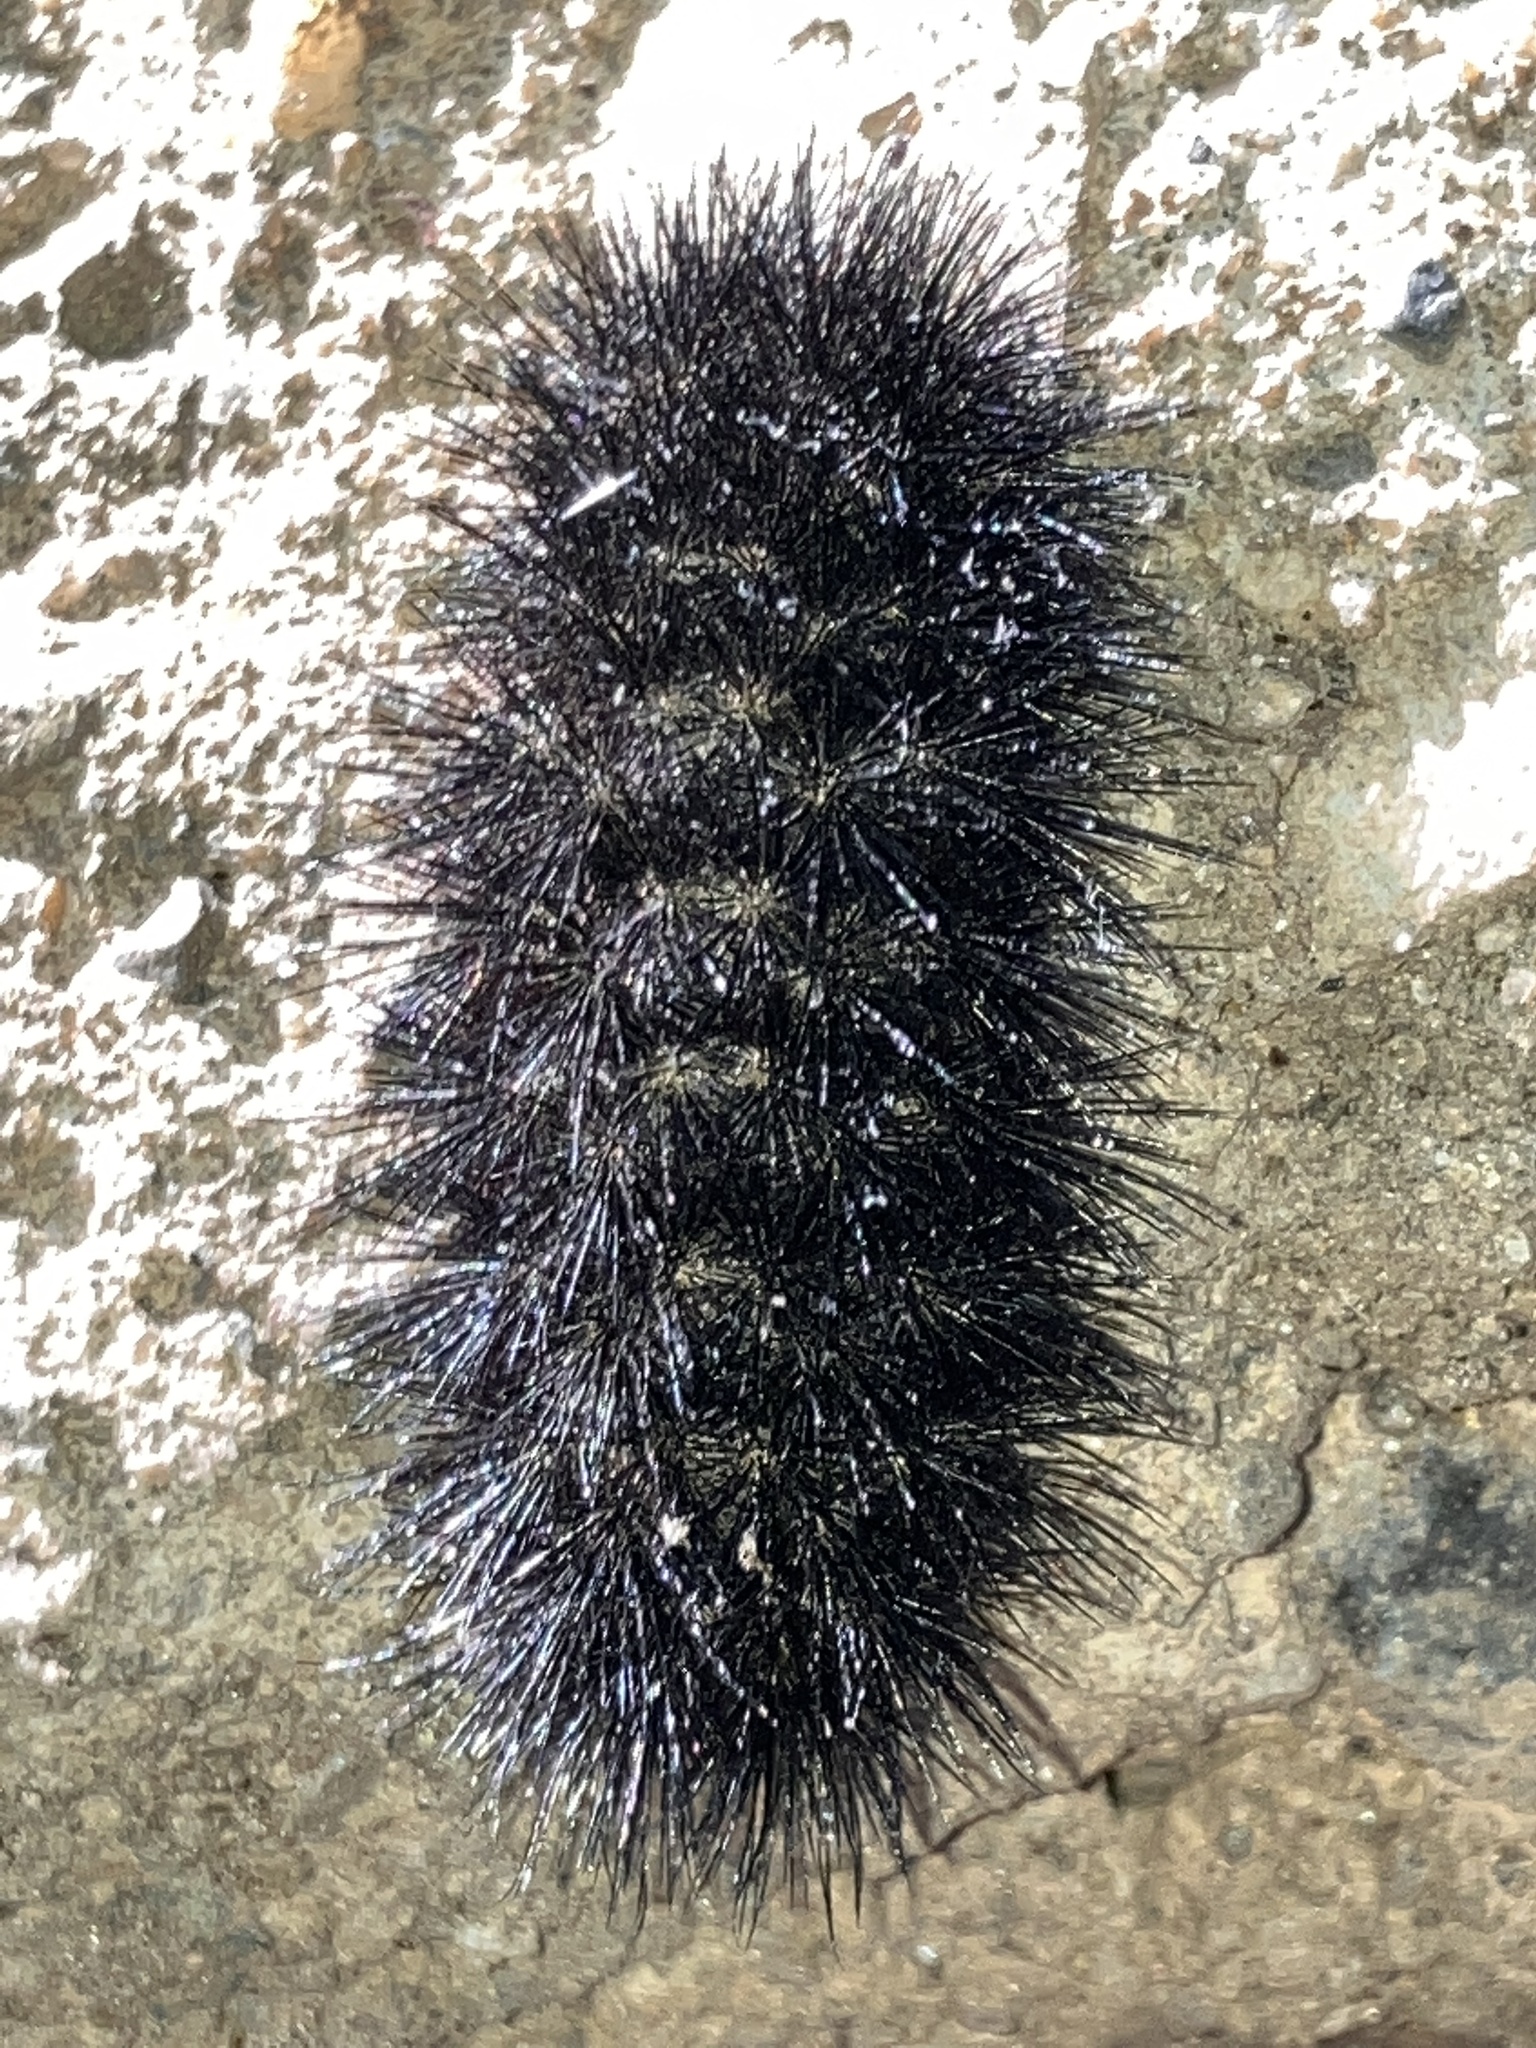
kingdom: Animalia
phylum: Arthropoda
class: Insecta
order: Lepidoptera
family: Erebidae
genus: Hypercompe
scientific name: Hypercompe scribonia
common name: Giant leopard moth
